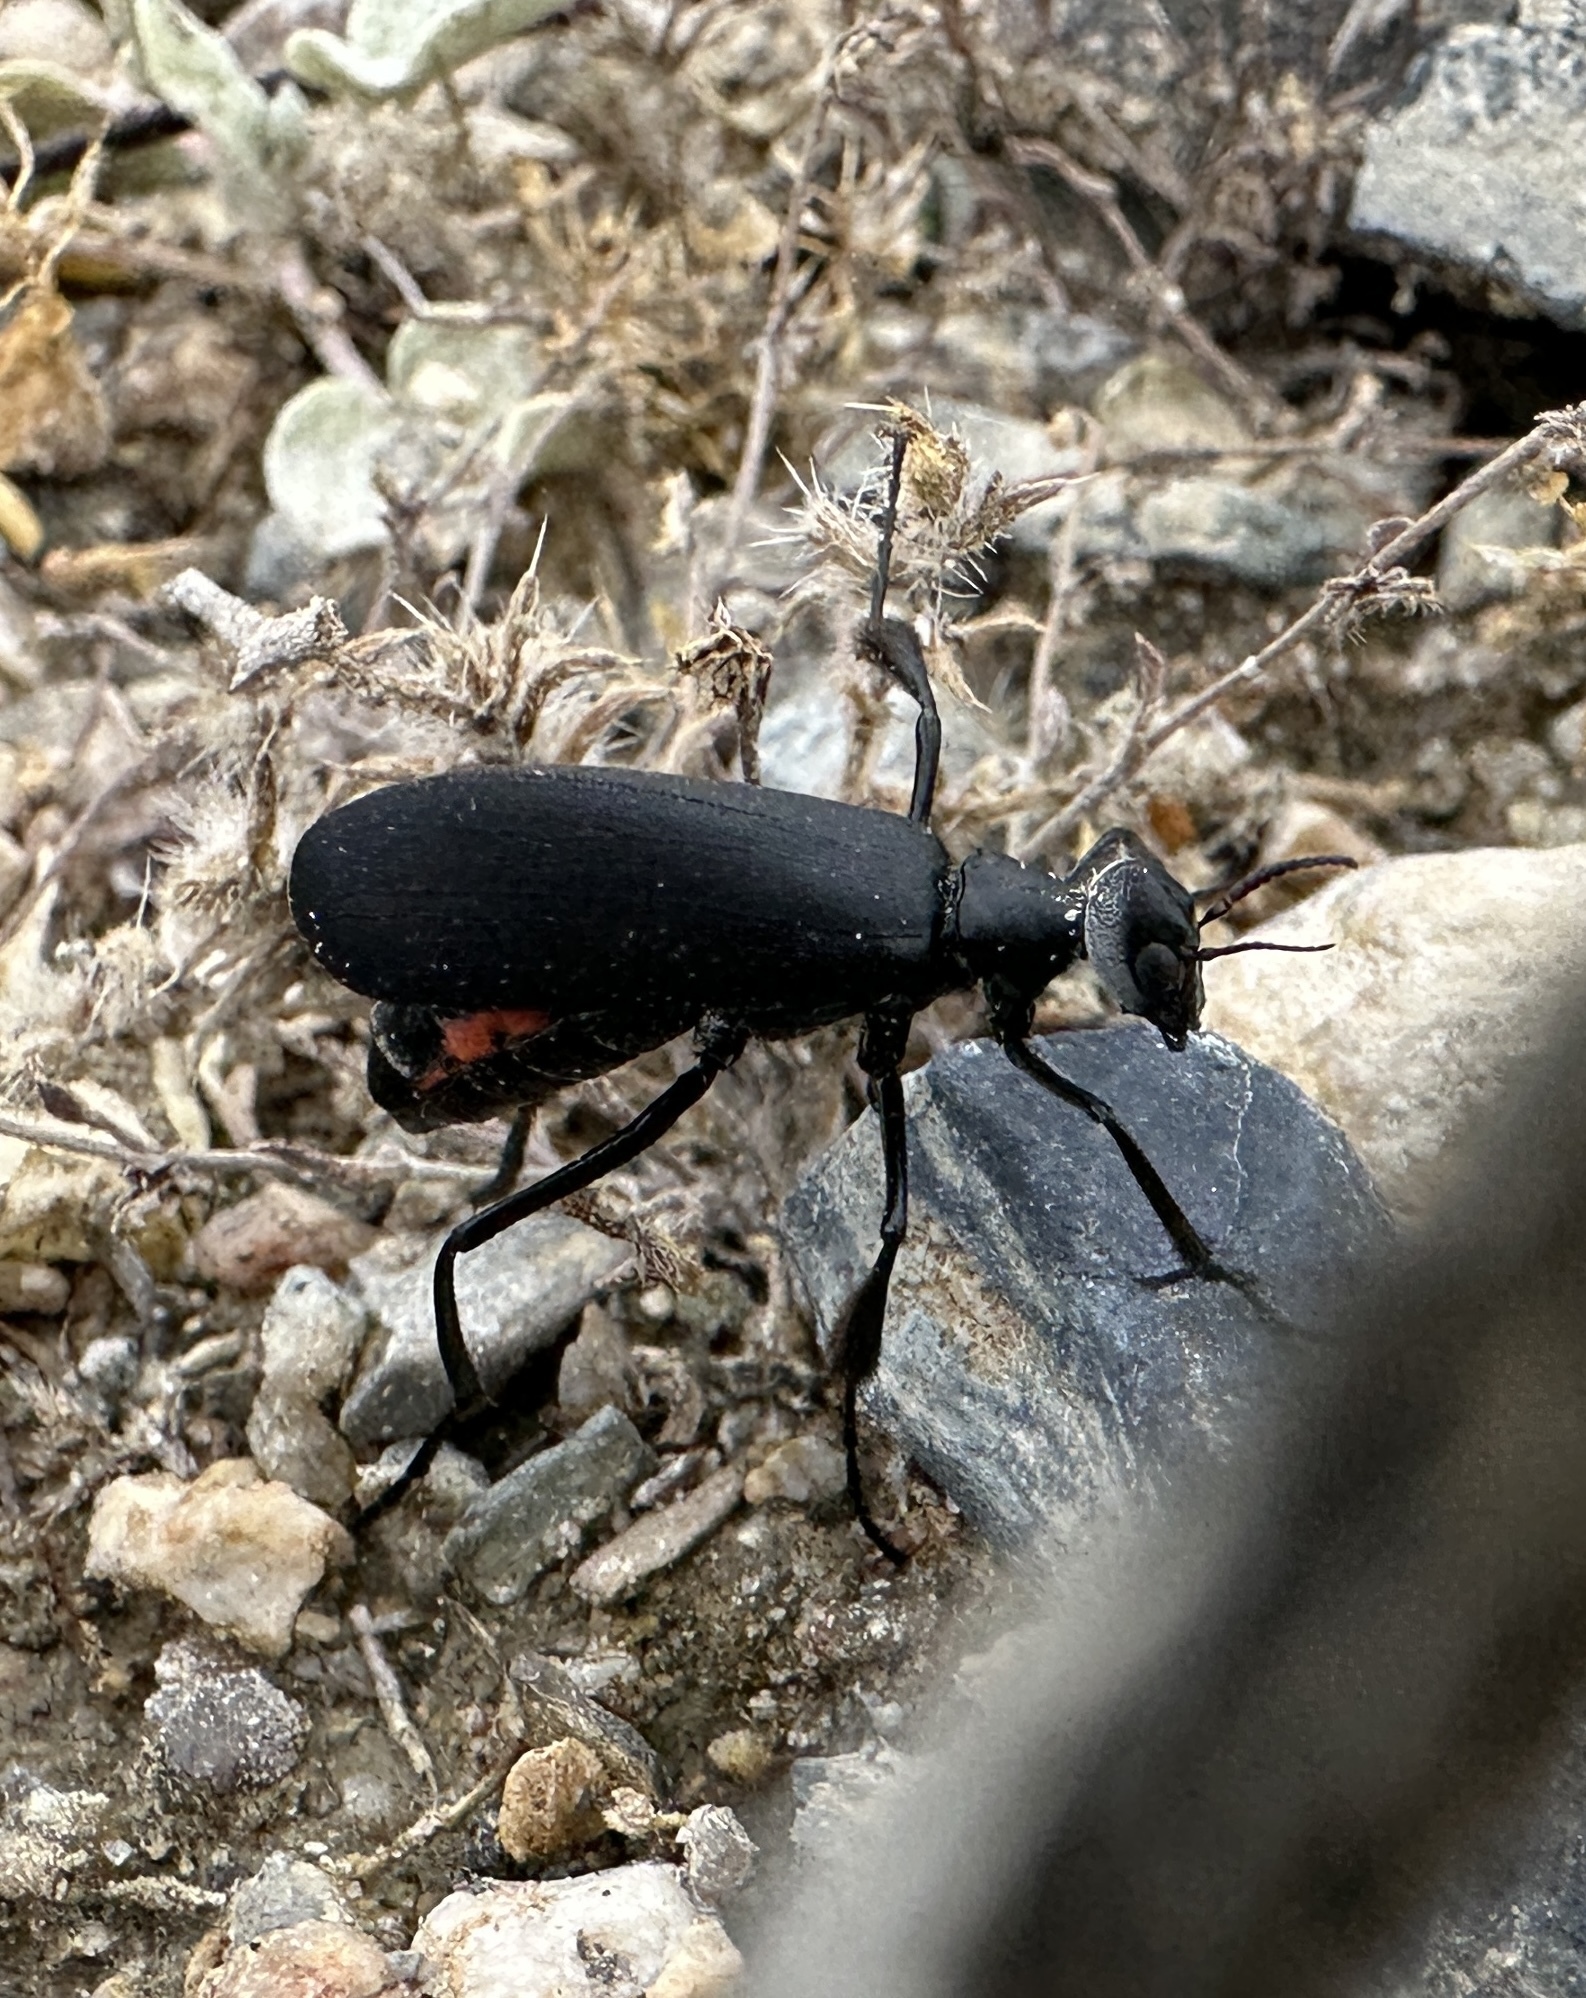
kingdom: Animalia
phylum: Arthropoda
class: Insecta
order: Coleoptera
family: Meloidae
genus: Phodaga
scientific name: Phodaga alticeps
